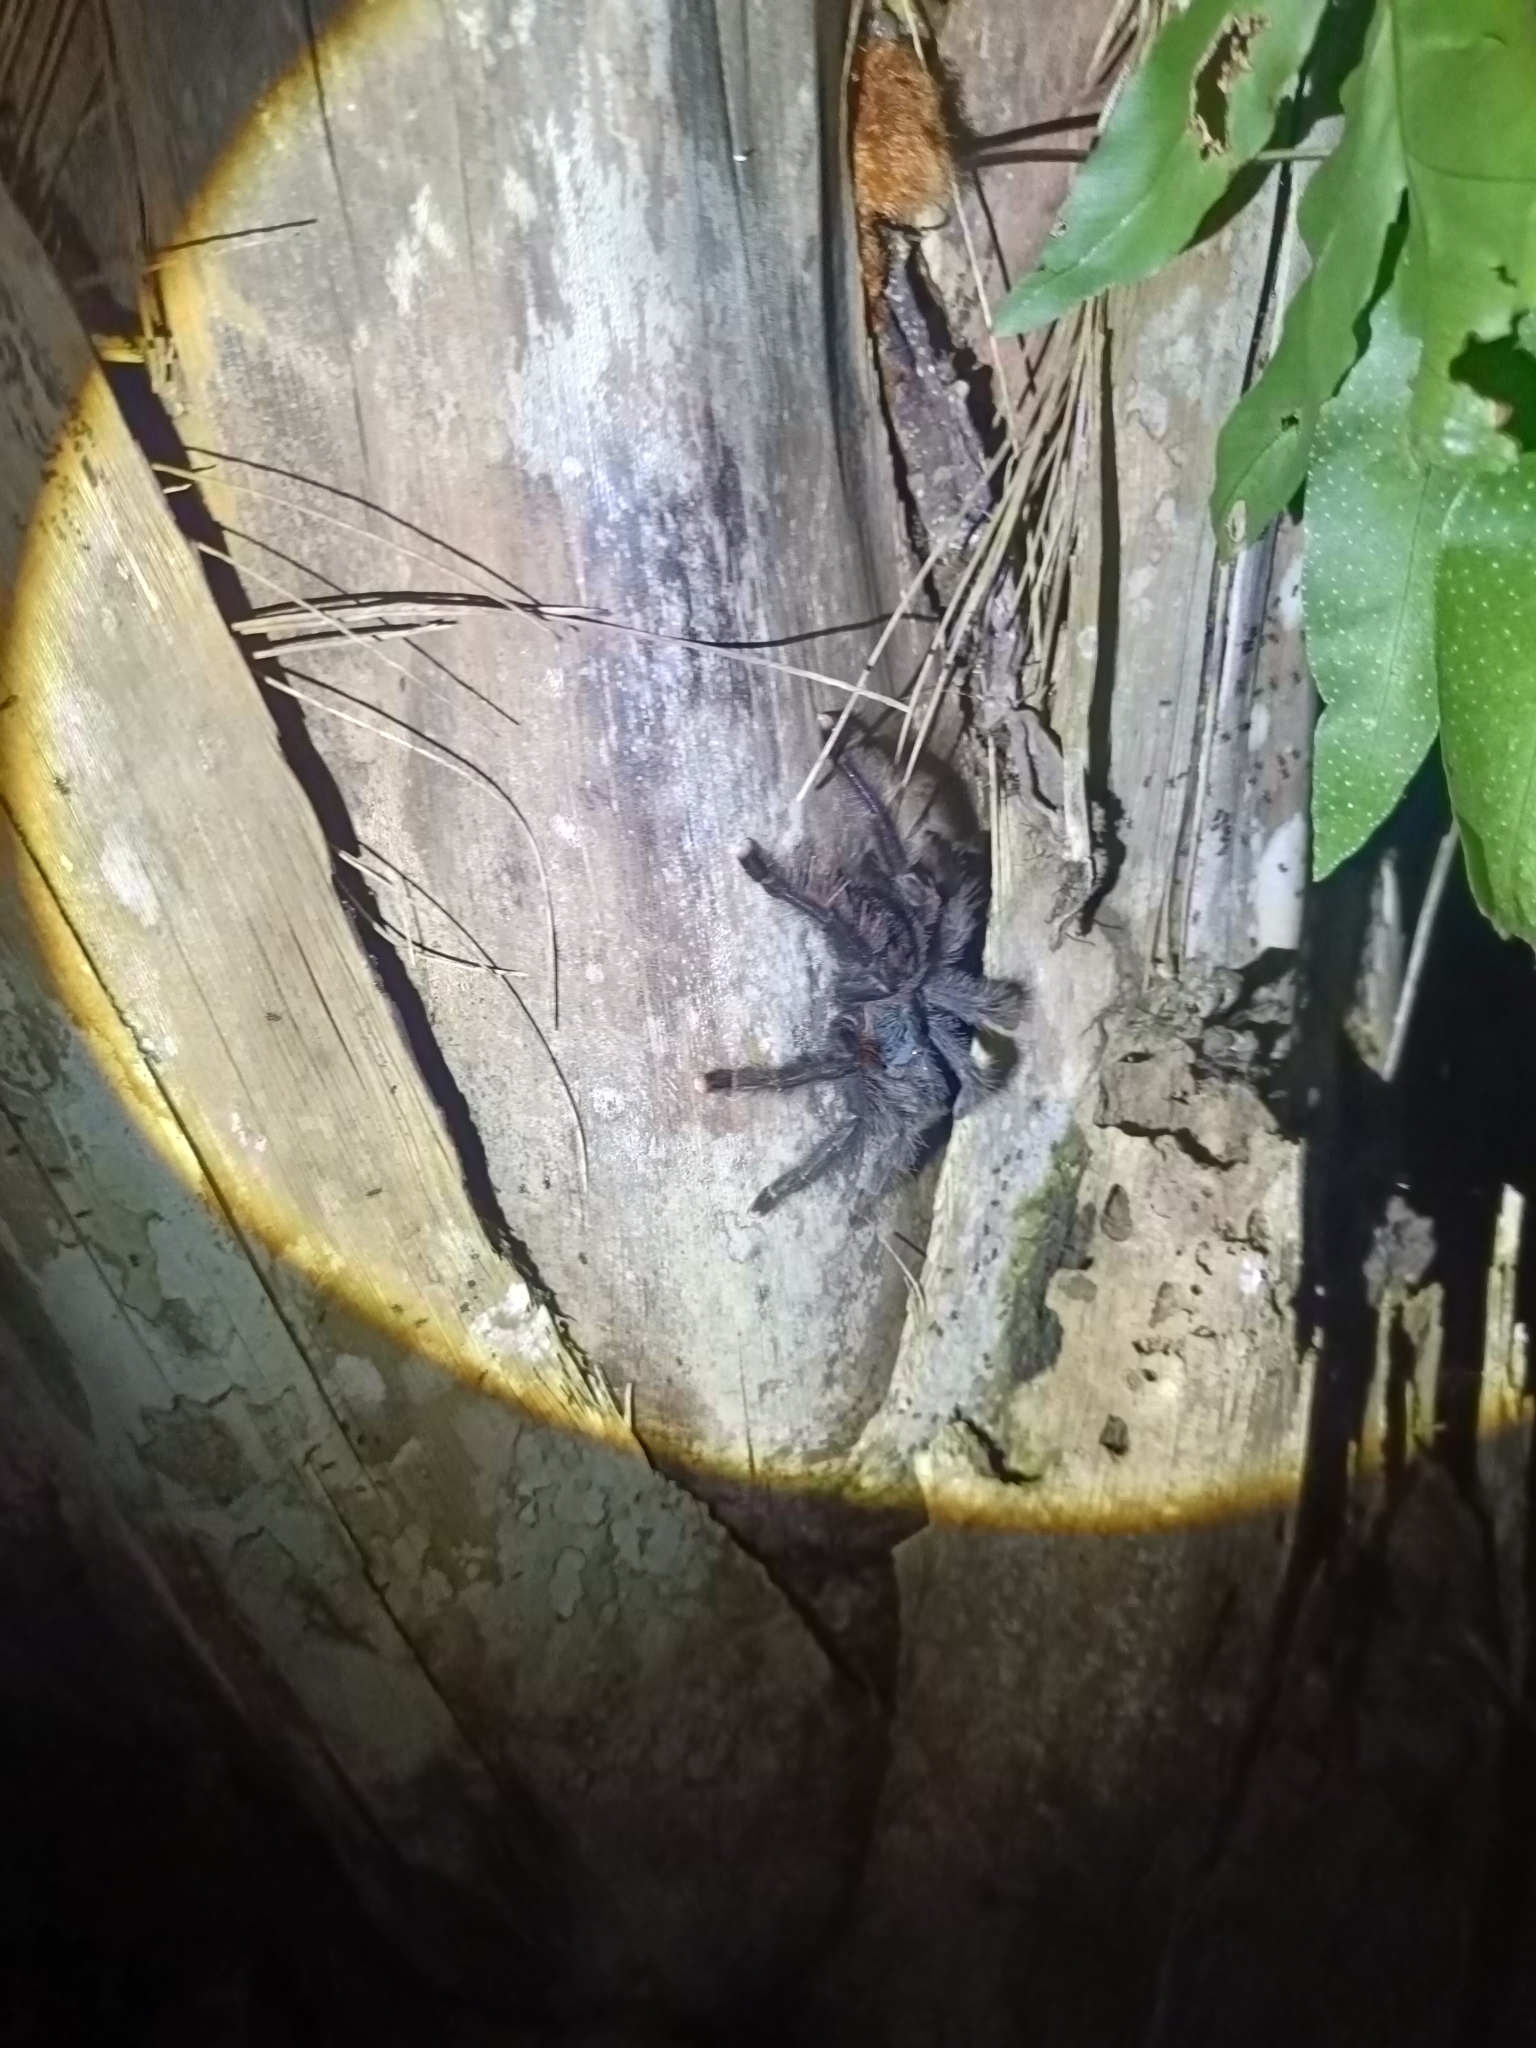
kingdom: Animalia
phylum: Arthropoda
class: Arachnida
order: Araneae
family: Theraphosidae
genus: Avicularia
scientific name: Avicularia avicularia
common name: Tarantula spiders
